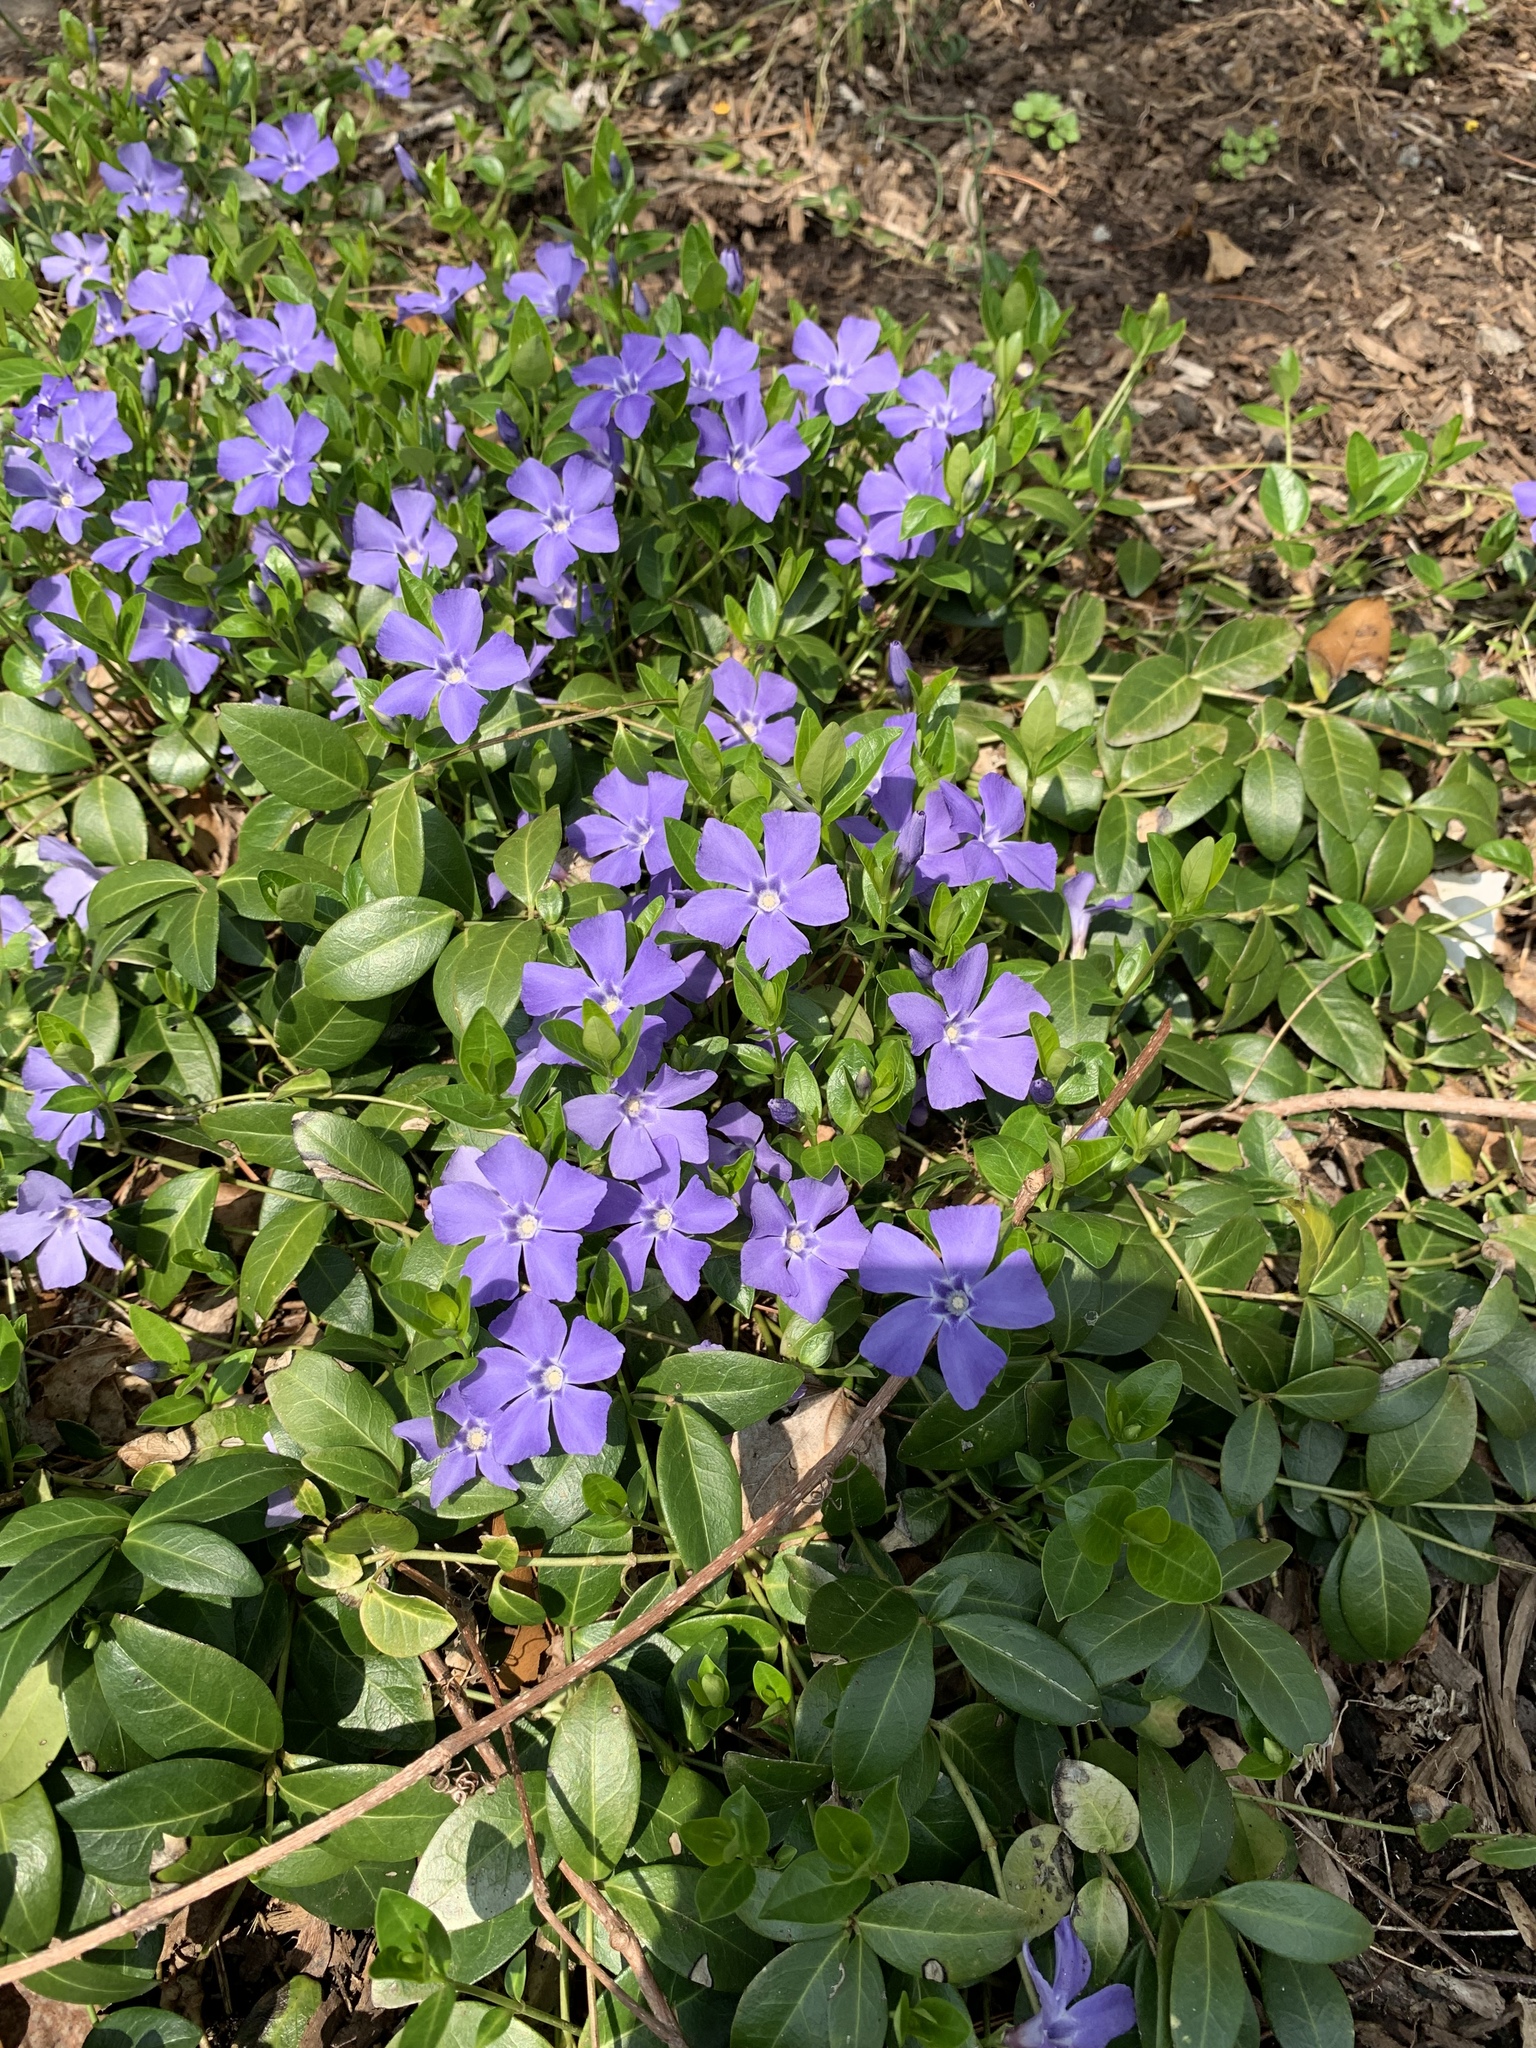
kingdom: Plantae
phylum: Tracheophyta
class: Magnoliopsida
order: Gentianales
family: Apocynaceae
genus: Vinca
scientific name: Vinca minor
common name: Lesser periwinkle
